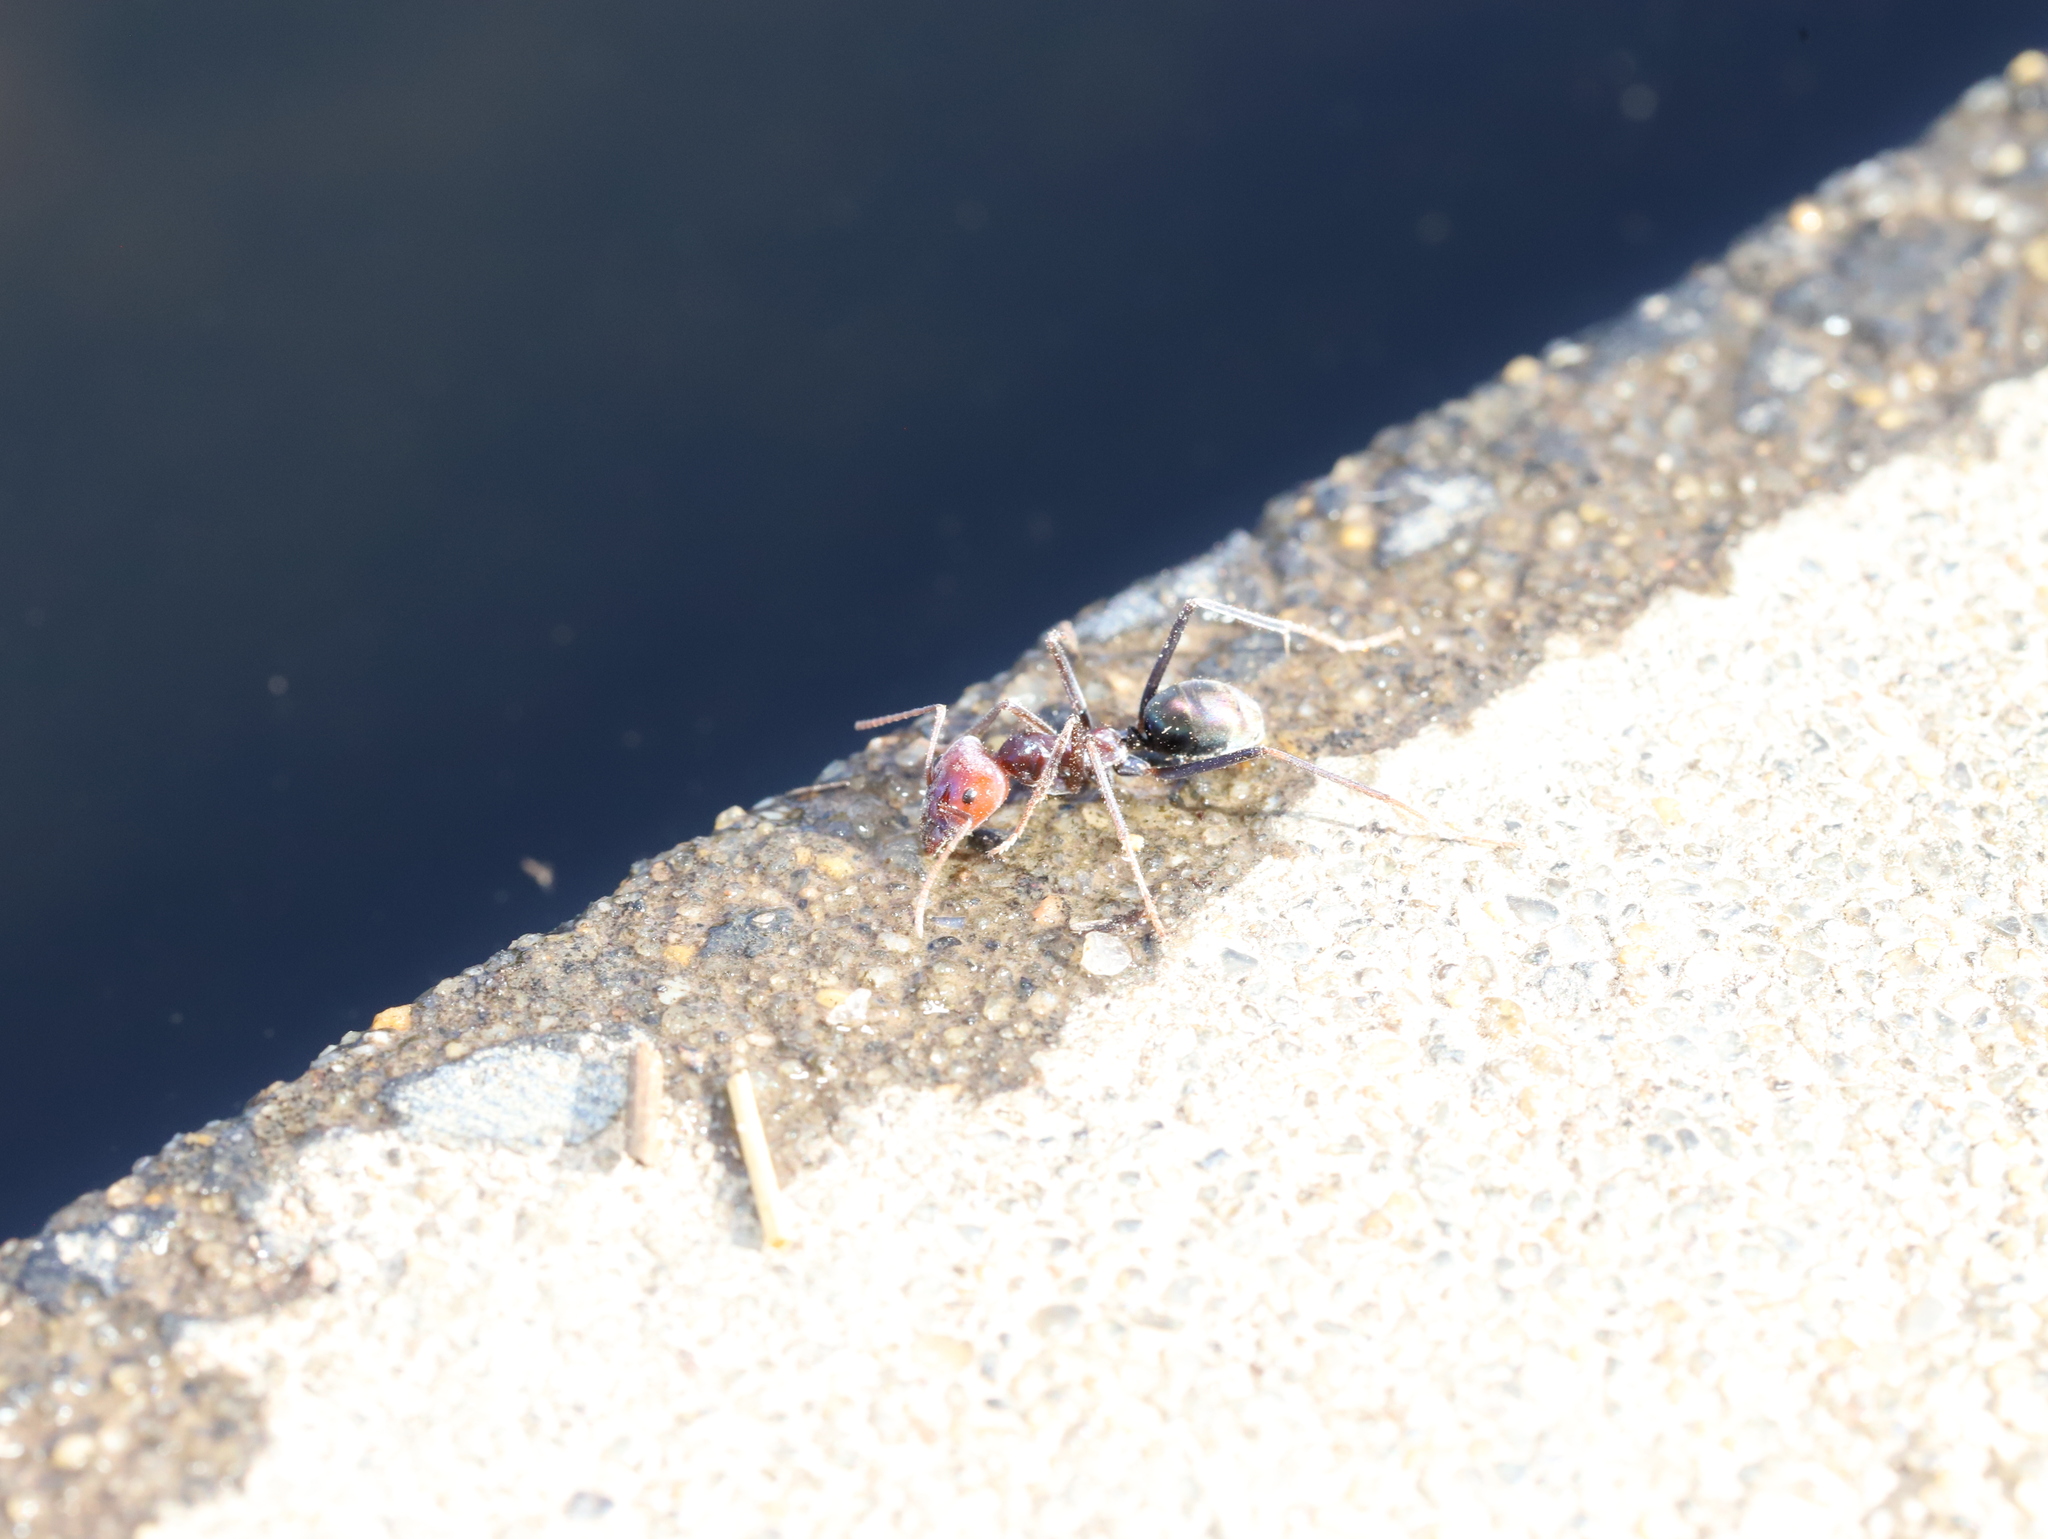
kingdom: Animalia
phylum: Arthropoda
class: Insecta
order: Hymenoptera
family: Formicidae
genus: Iridomyrmex
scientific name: Iridomyrmex purpureus
